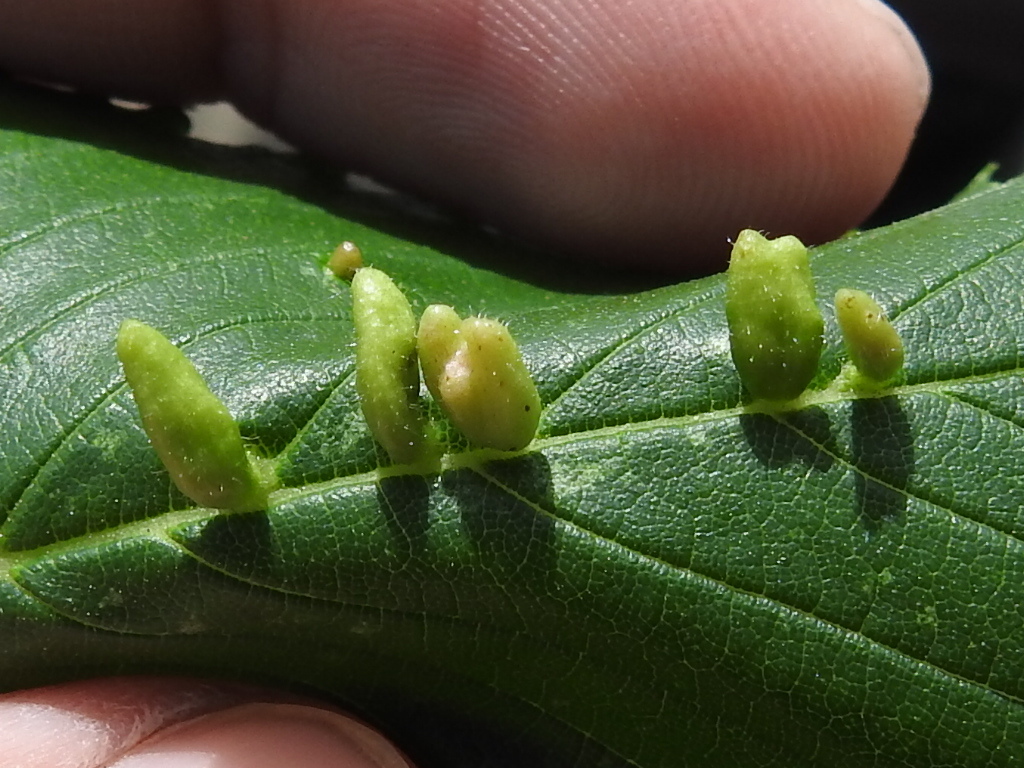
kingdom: Animalia
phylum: Arthropoda
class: Arachnida
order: Trombidiformes
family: Eriophyidae
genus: Aceria
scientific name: Aceria
